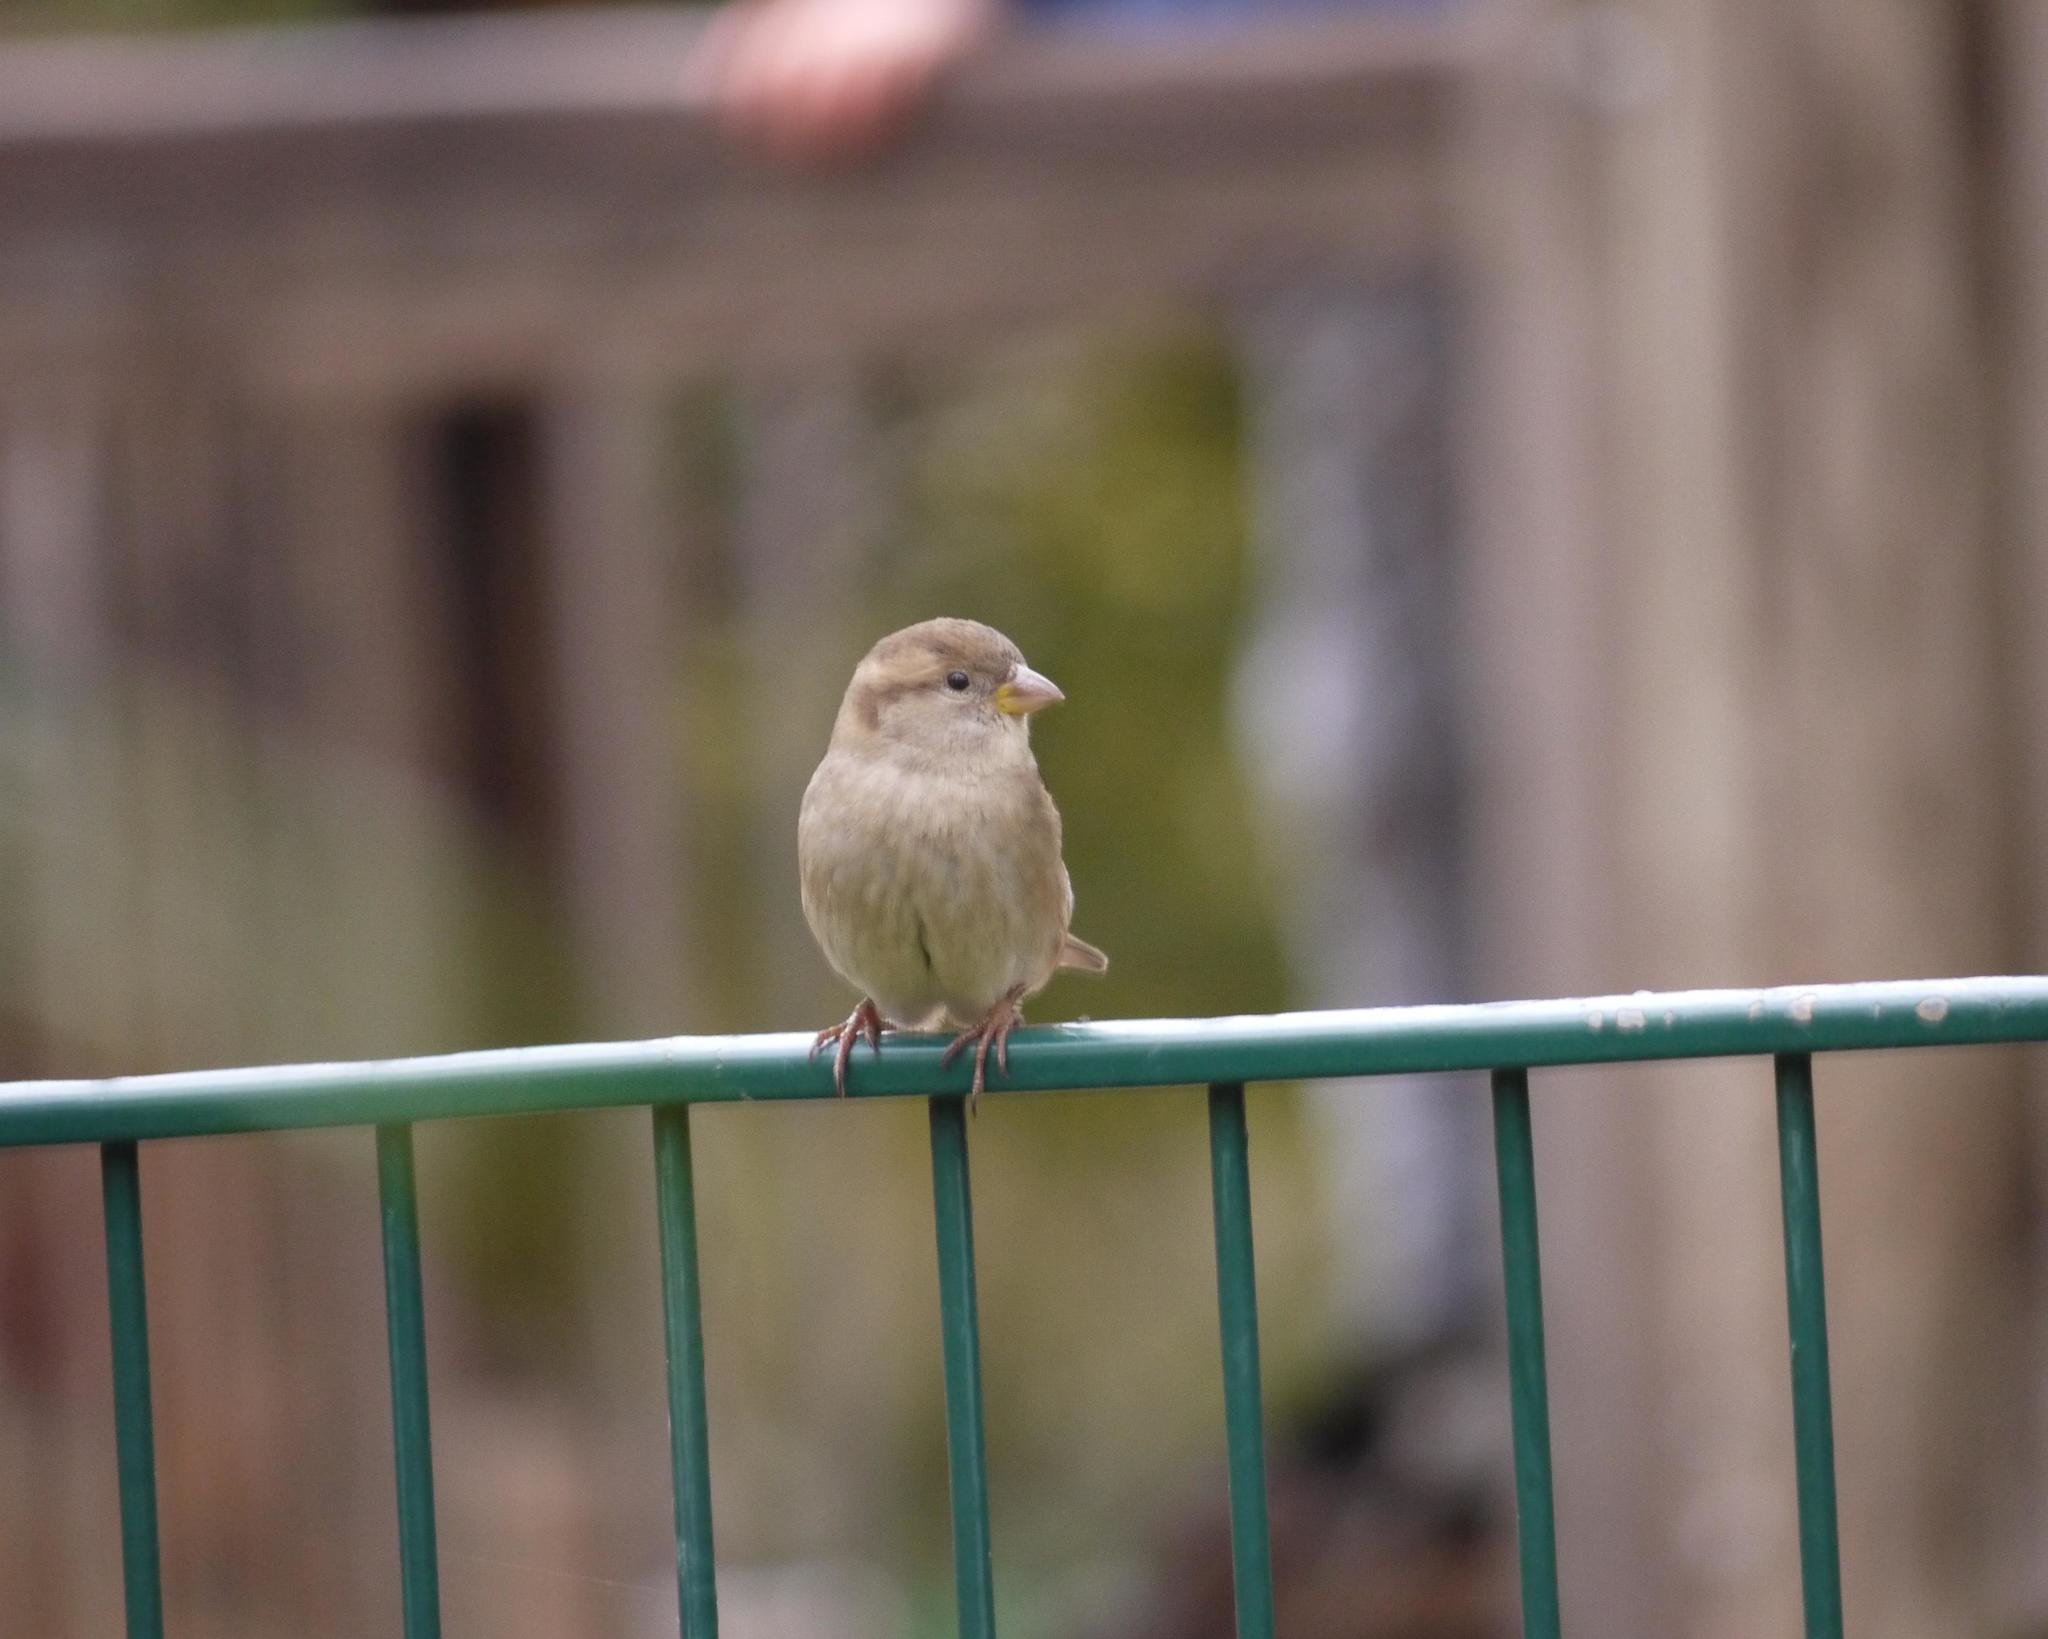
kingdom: Animalia
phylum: Chordata
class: Aves
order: Passeriformes
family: Passeridae
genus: Passer
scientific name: Passer domesticus
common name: House sparrow
